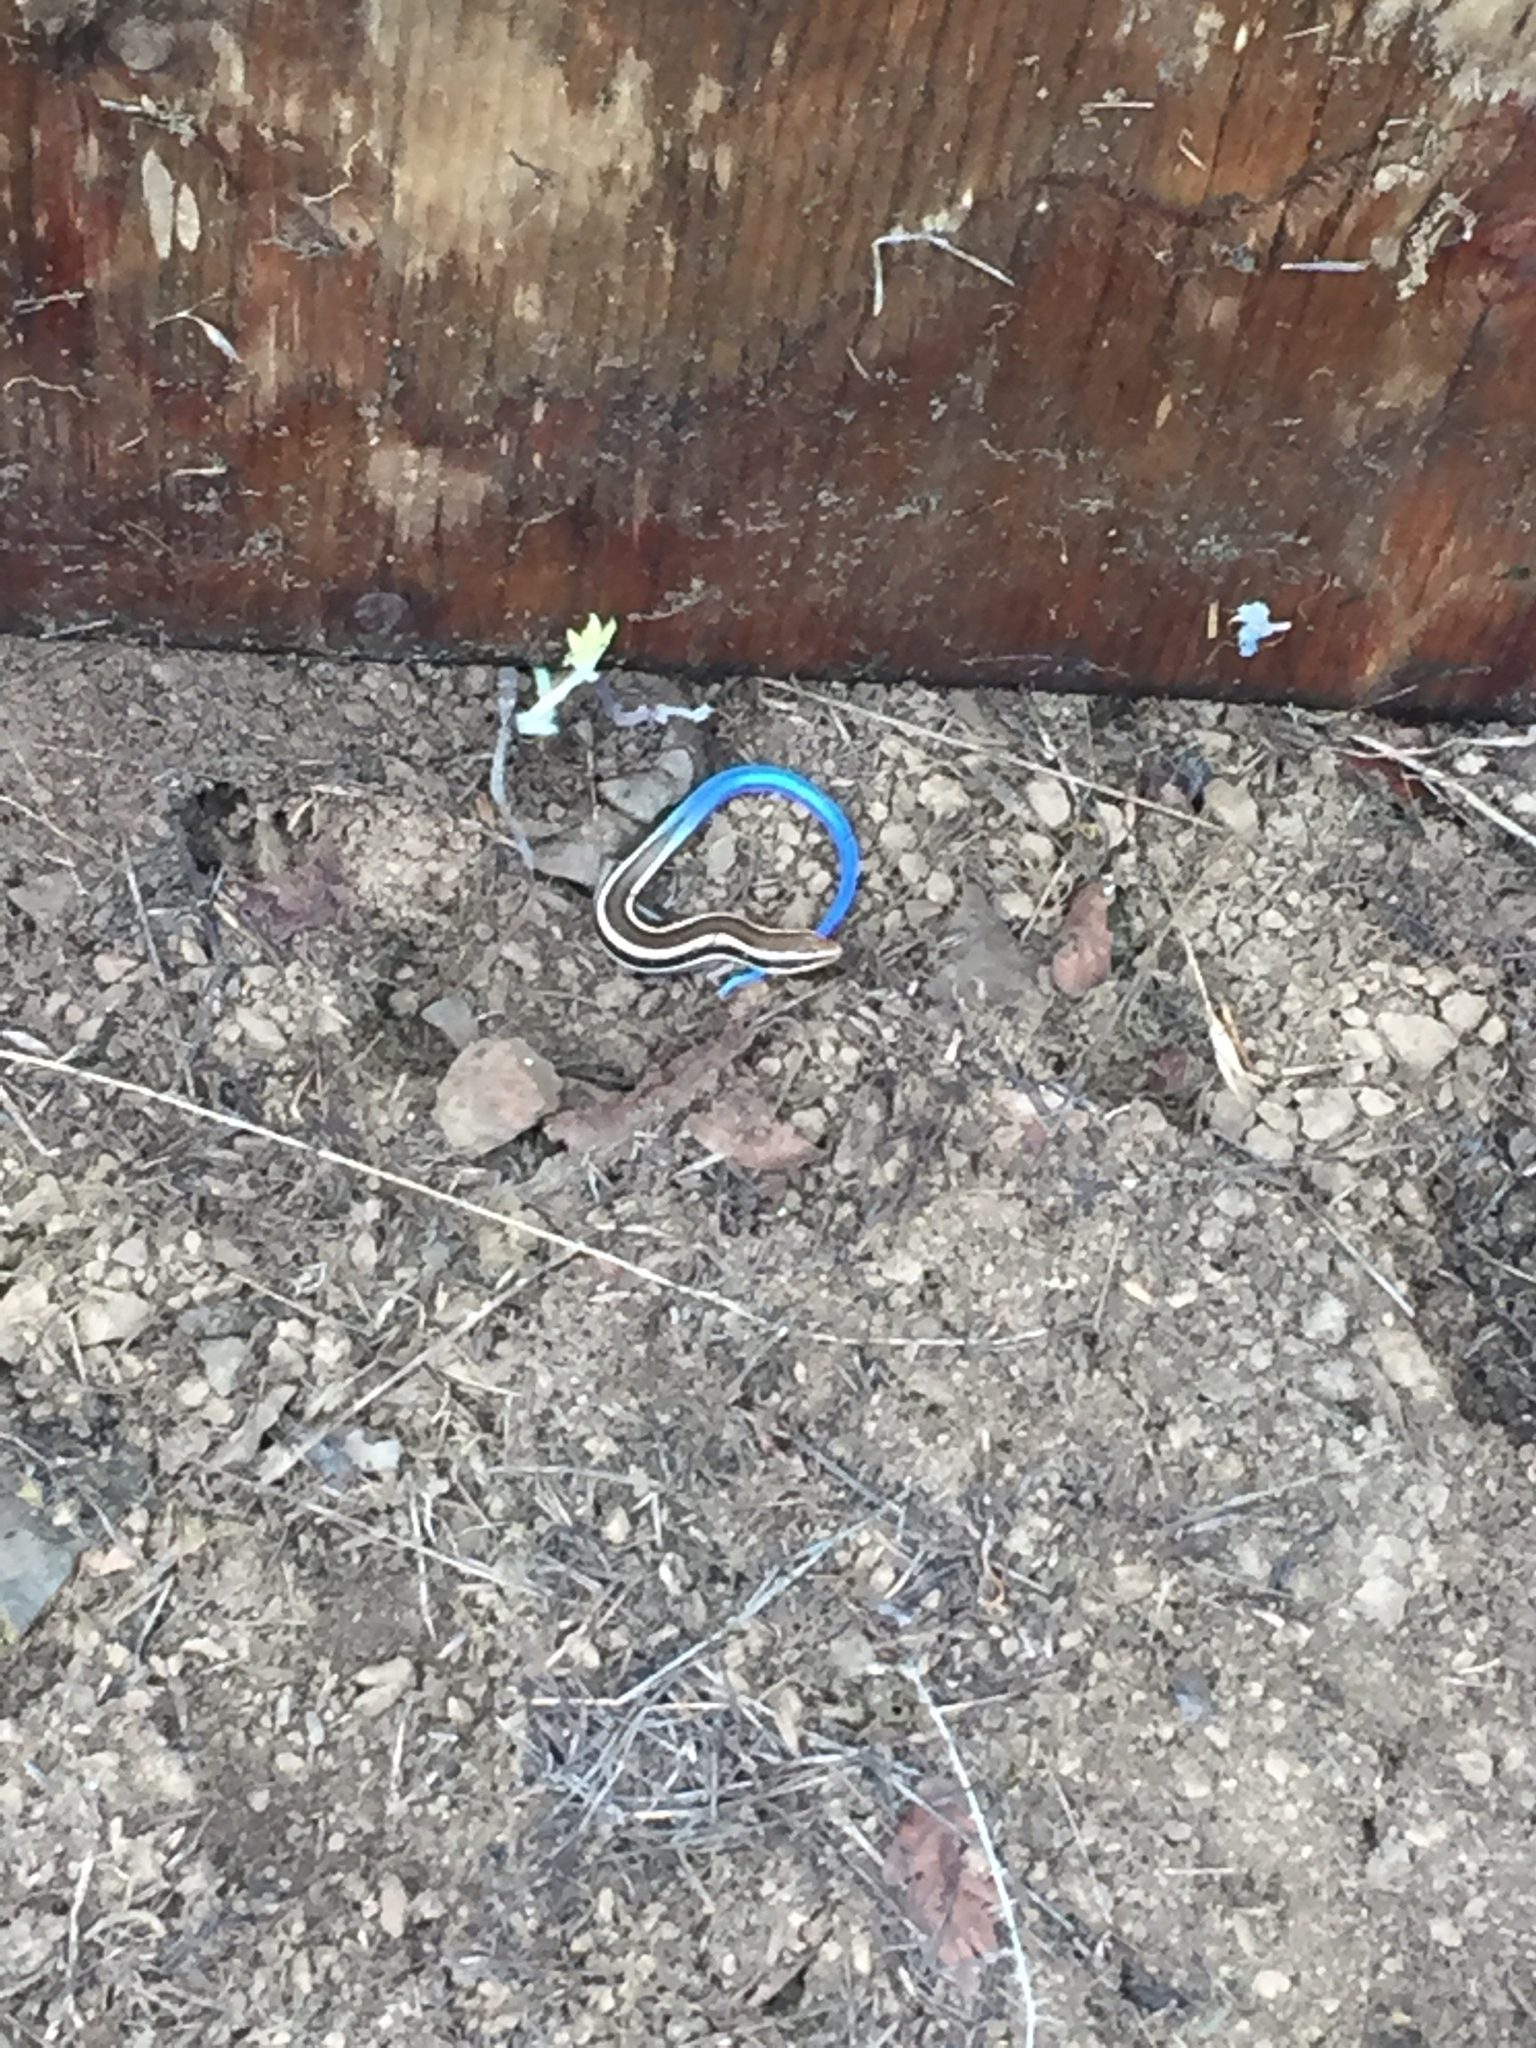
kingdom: Animalia
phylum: Chordata
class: Squamata
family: Scincidae
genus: Plestiodon
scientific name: Plestiodon skiltonianus
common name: Coronado island skink [interparietalis]
